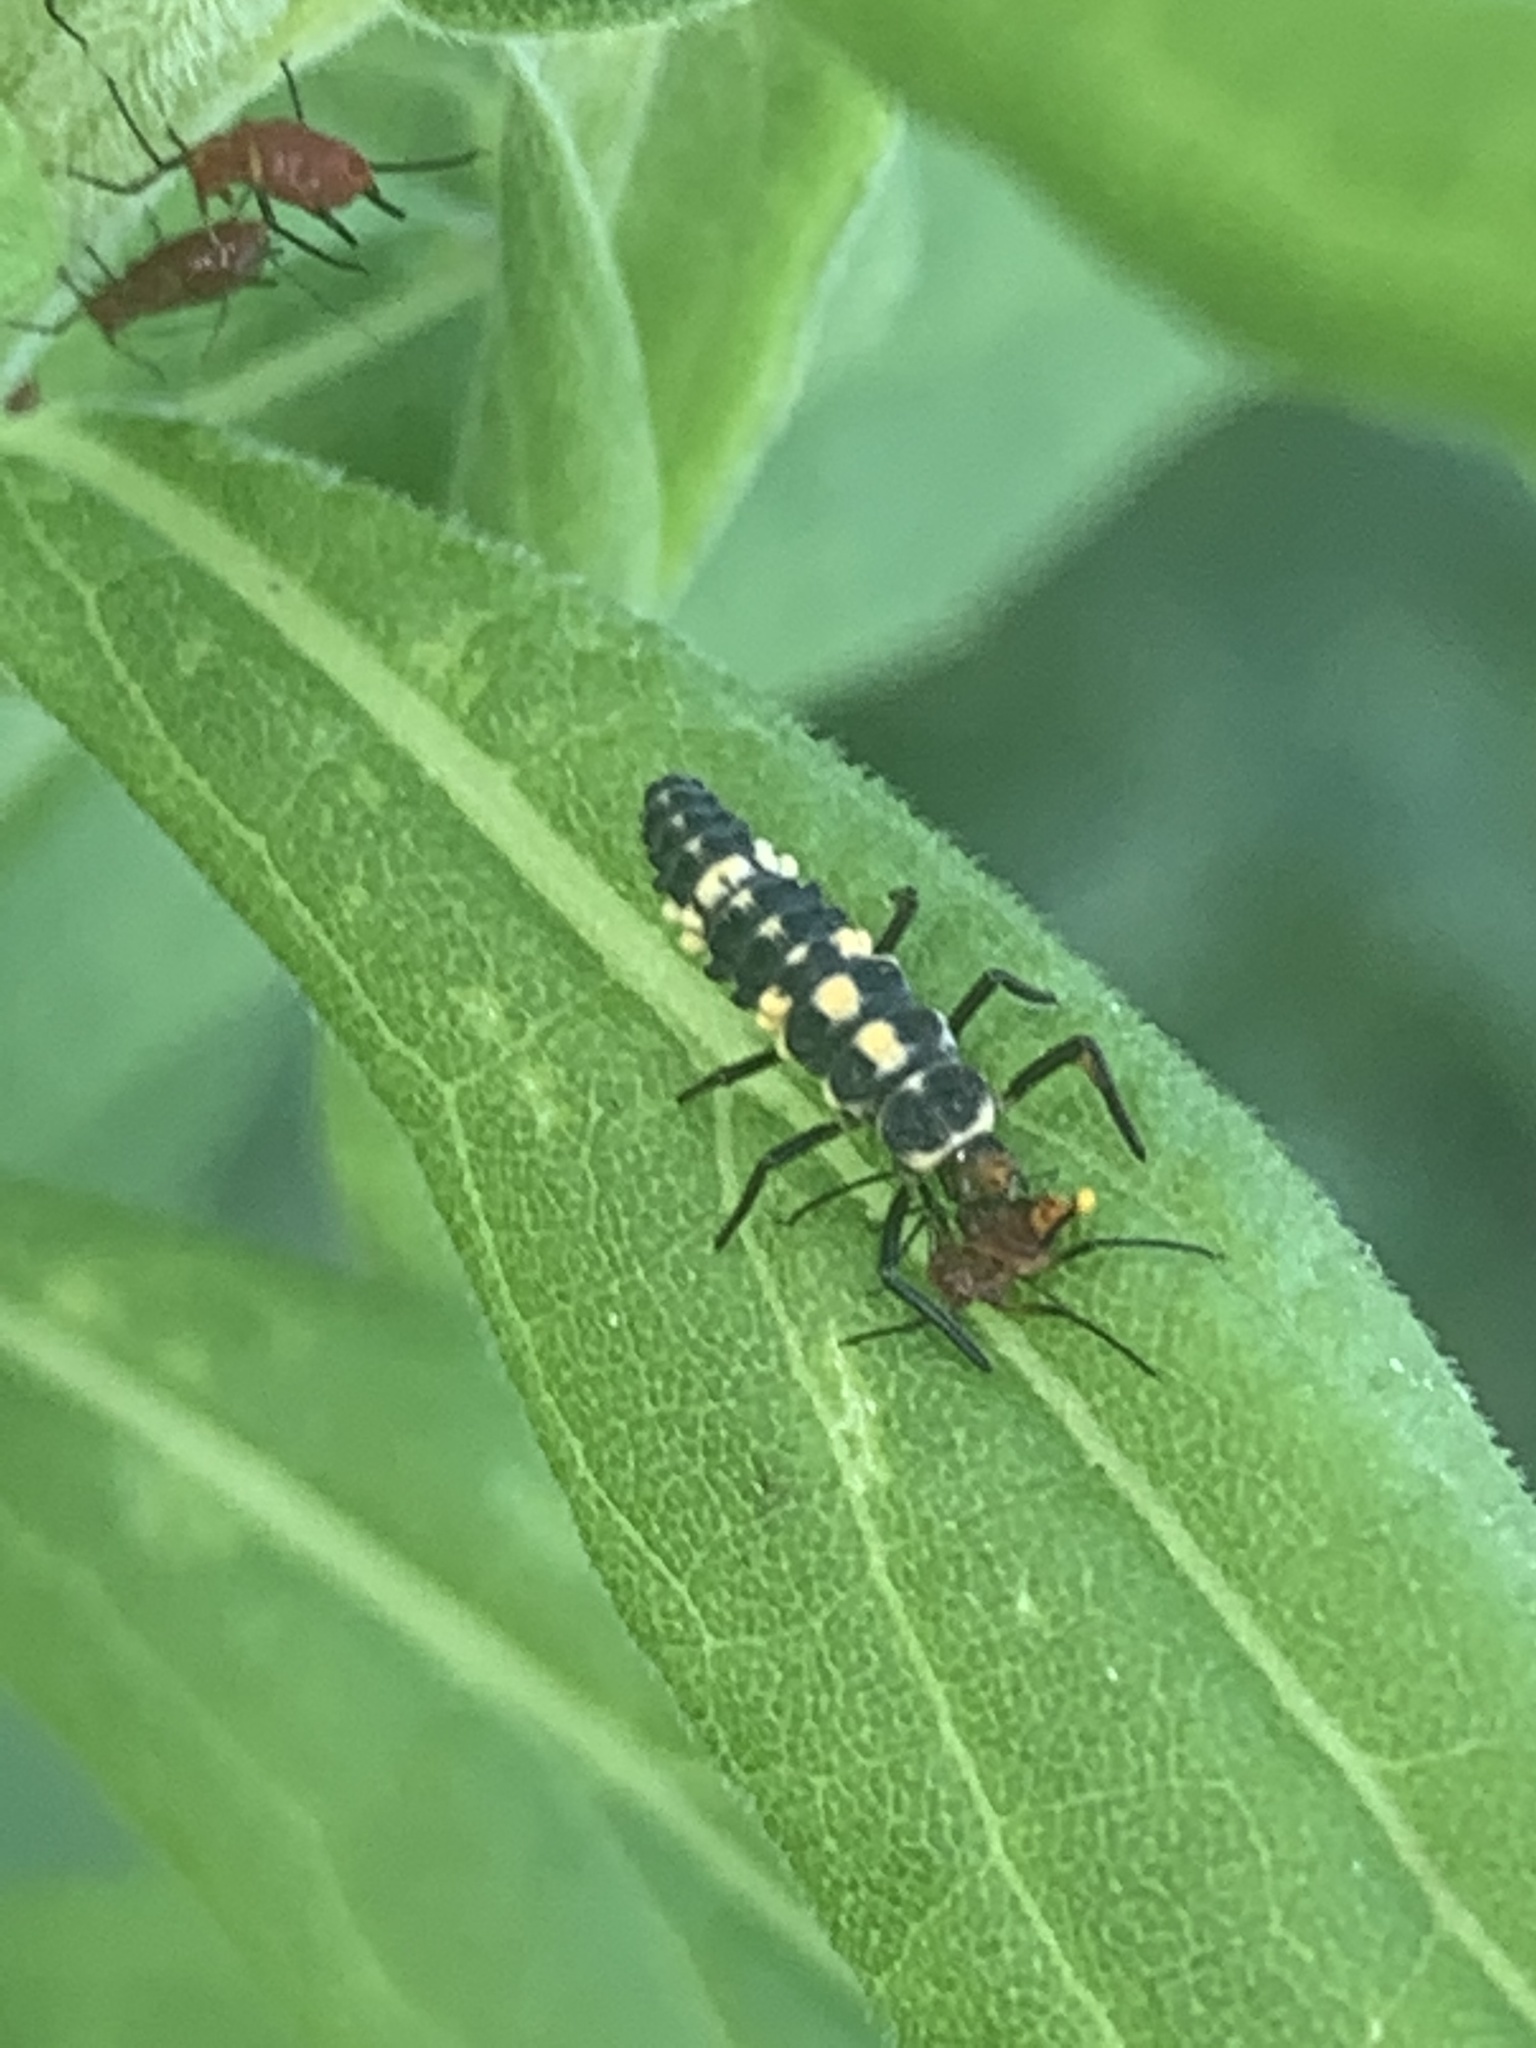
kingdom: Animalia
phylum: Arthropoda
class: Insecta
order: Coleoptera
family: Coccinellidae
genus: Cycloneda
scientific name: Cycloneda munda
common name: Polished lady beetle
